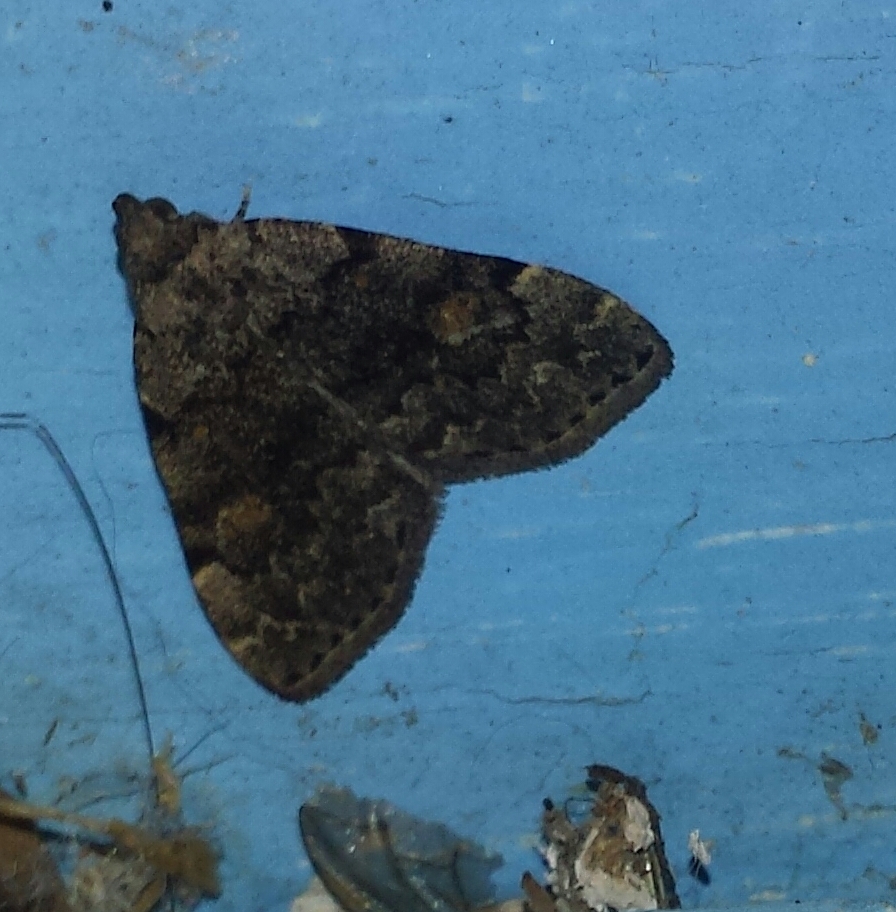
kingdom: Animalia
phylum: Arthropoda
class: Insecta
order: Lepidoptera
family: Erebidae
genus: Idia
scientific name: Idia aemula
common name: Common idia moth
